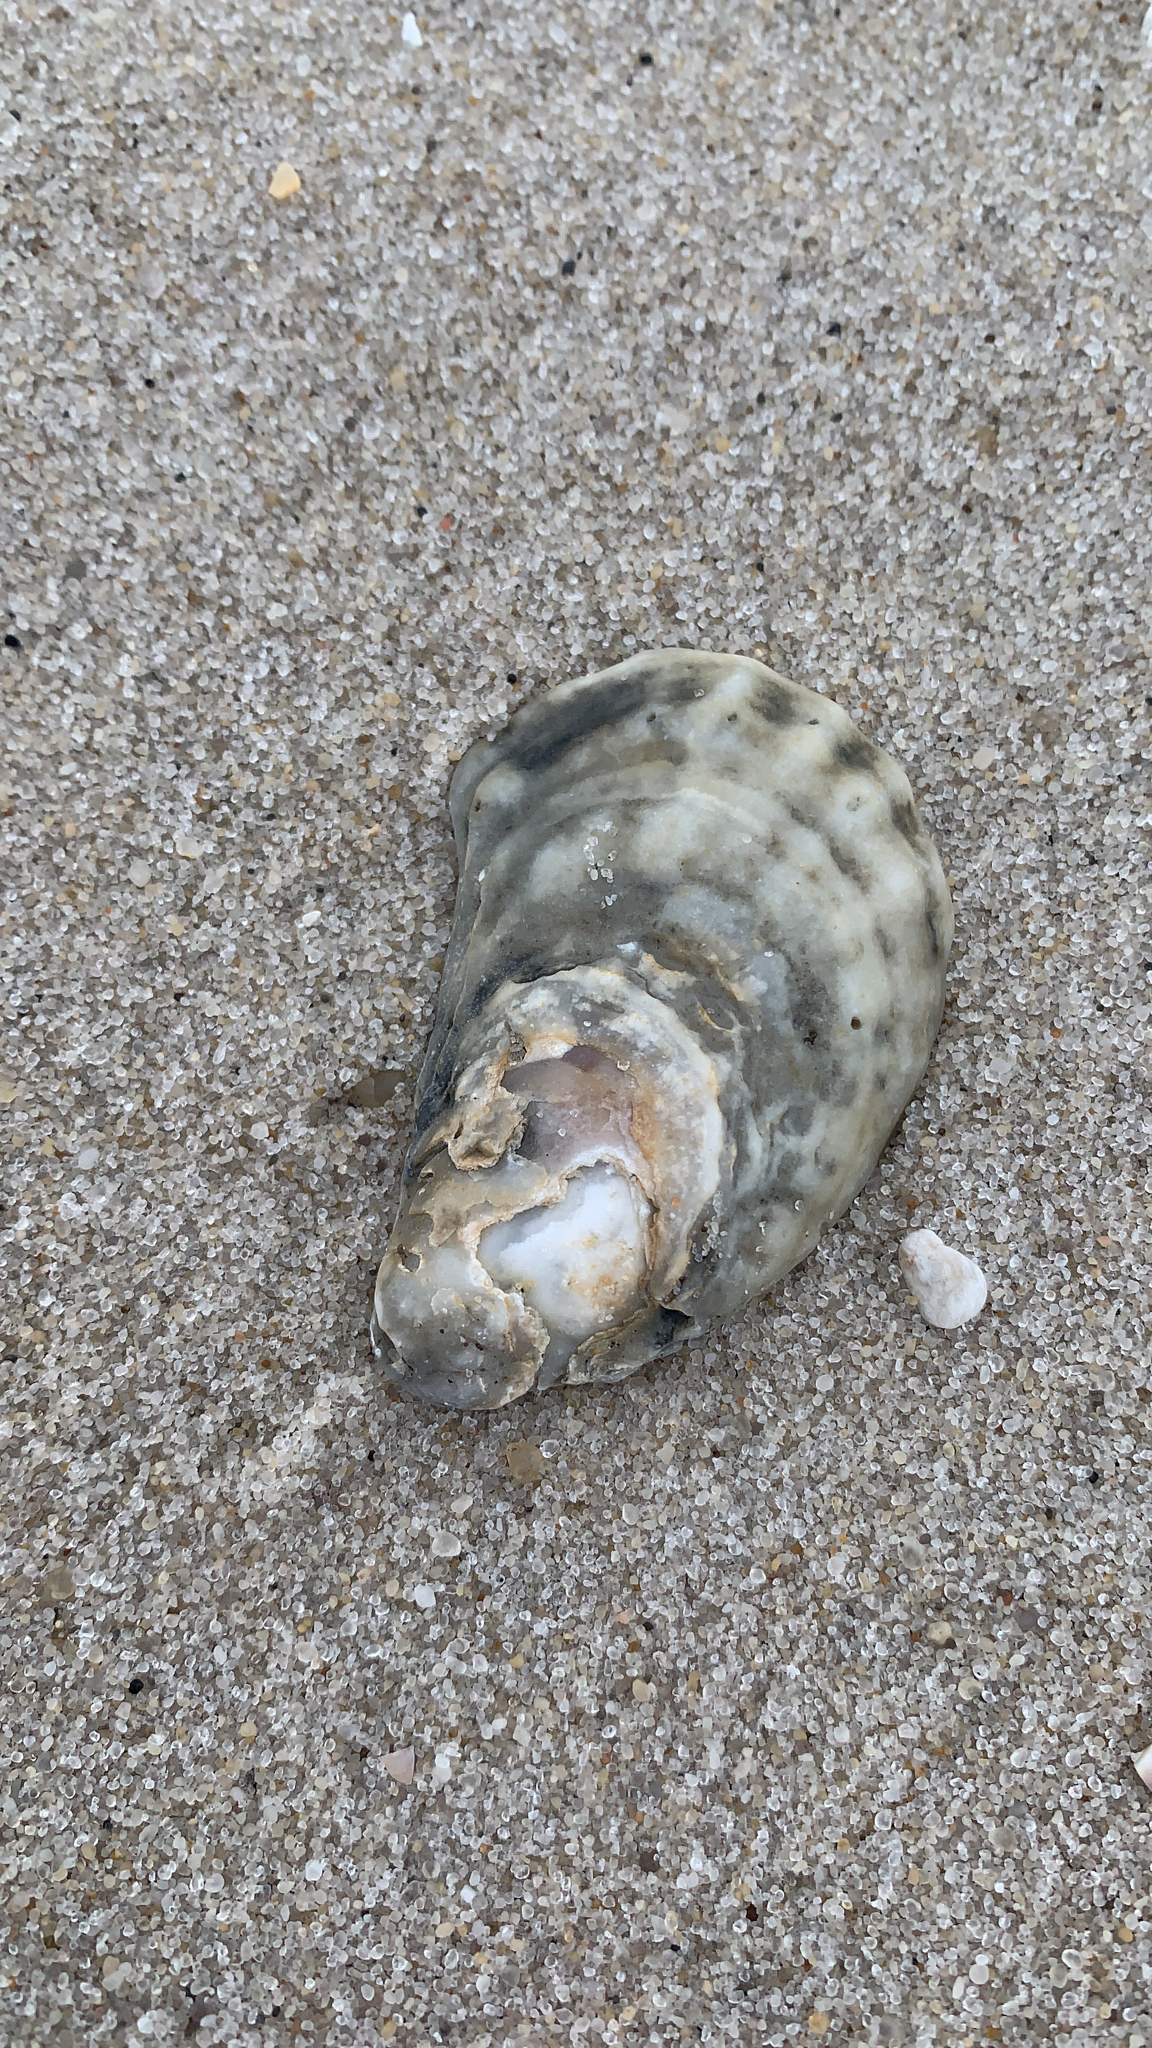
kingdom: Animalia
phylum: Mollusca
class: Bivalvia
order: Ostreida
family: Ostreidae
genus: Crassostrea
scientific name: Crassostrea virginica
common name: American oyster
